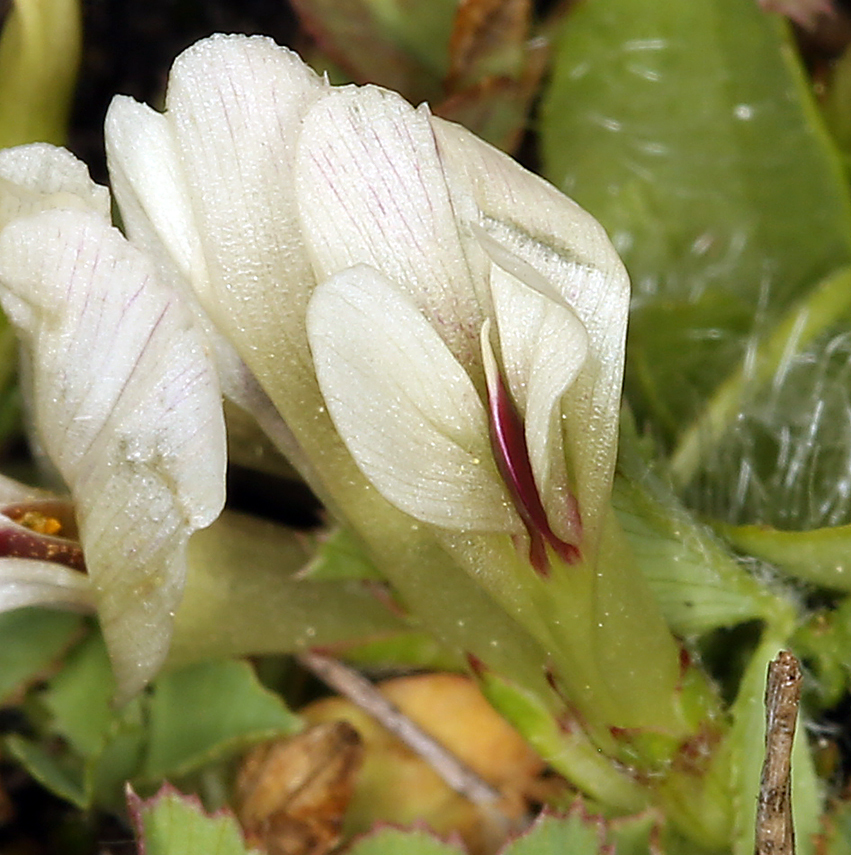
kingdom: Plantae
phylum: Tracheophyta
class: Magnoliopsida
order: Fabales
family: Fabaceae
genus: Trifolium
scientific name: Trifolium monanthum
